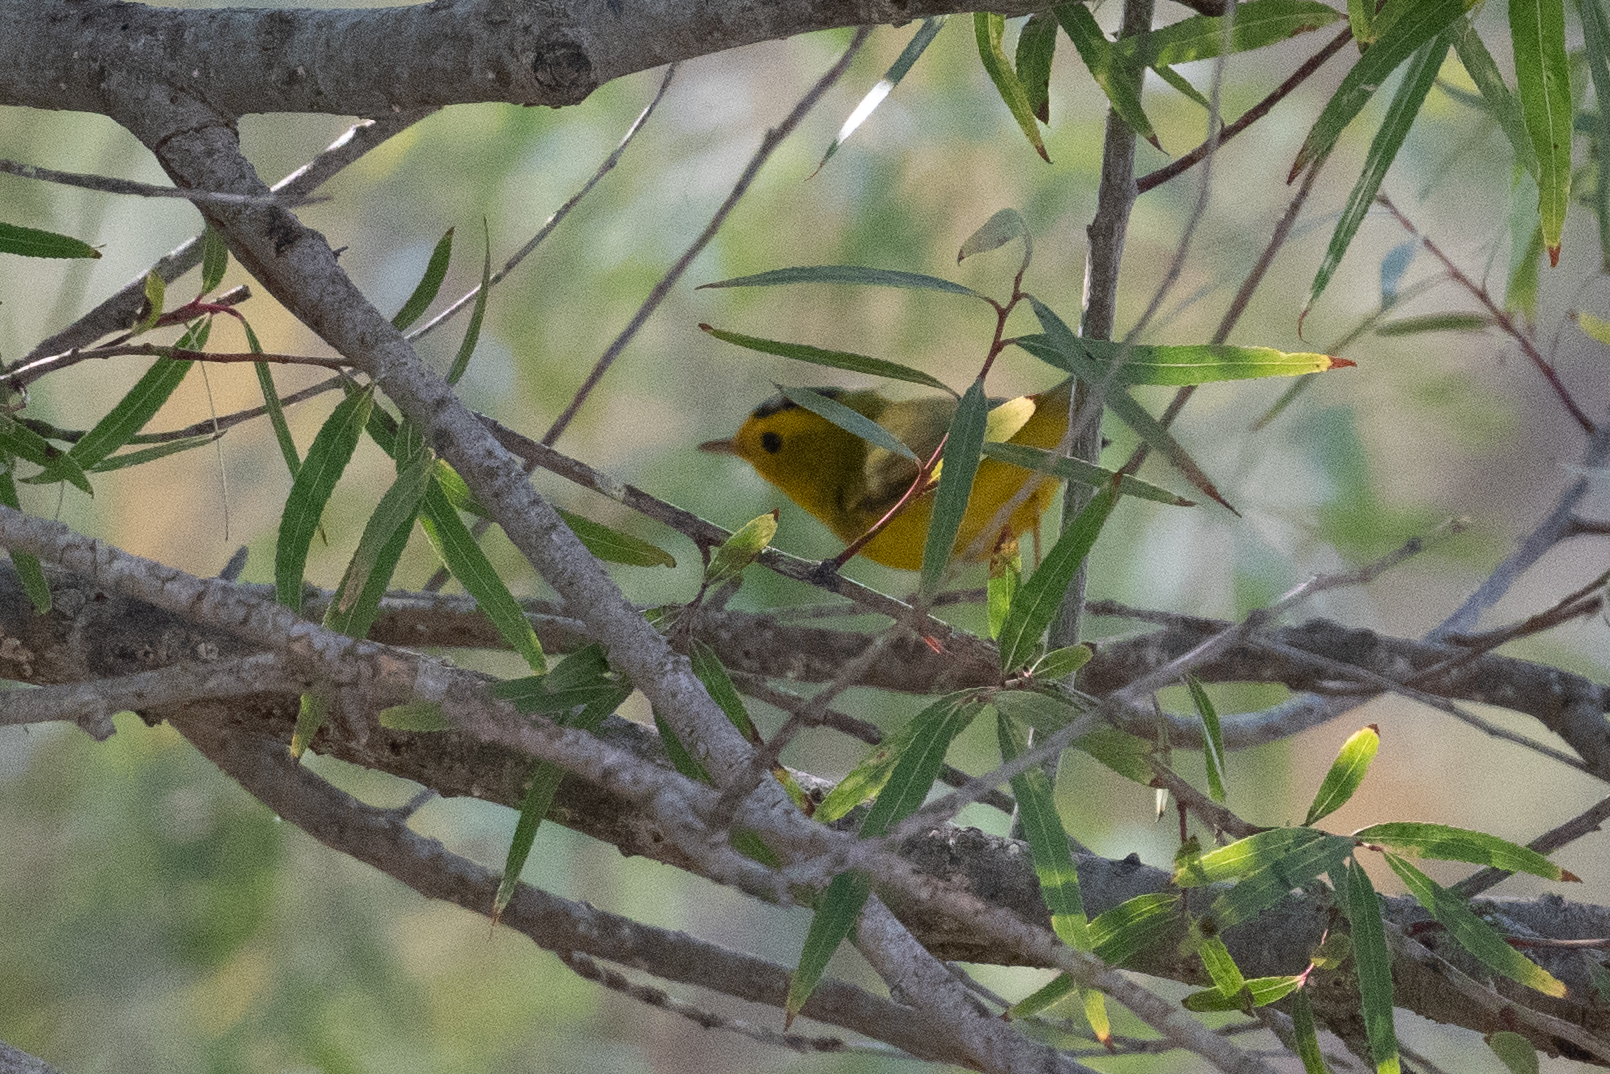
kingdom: Animalia
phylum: Chordata
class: Aves
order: Passeriformes
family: Parulidae
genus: Cardellina
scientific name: Cardellina pusilla
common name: Wilson's warbler
